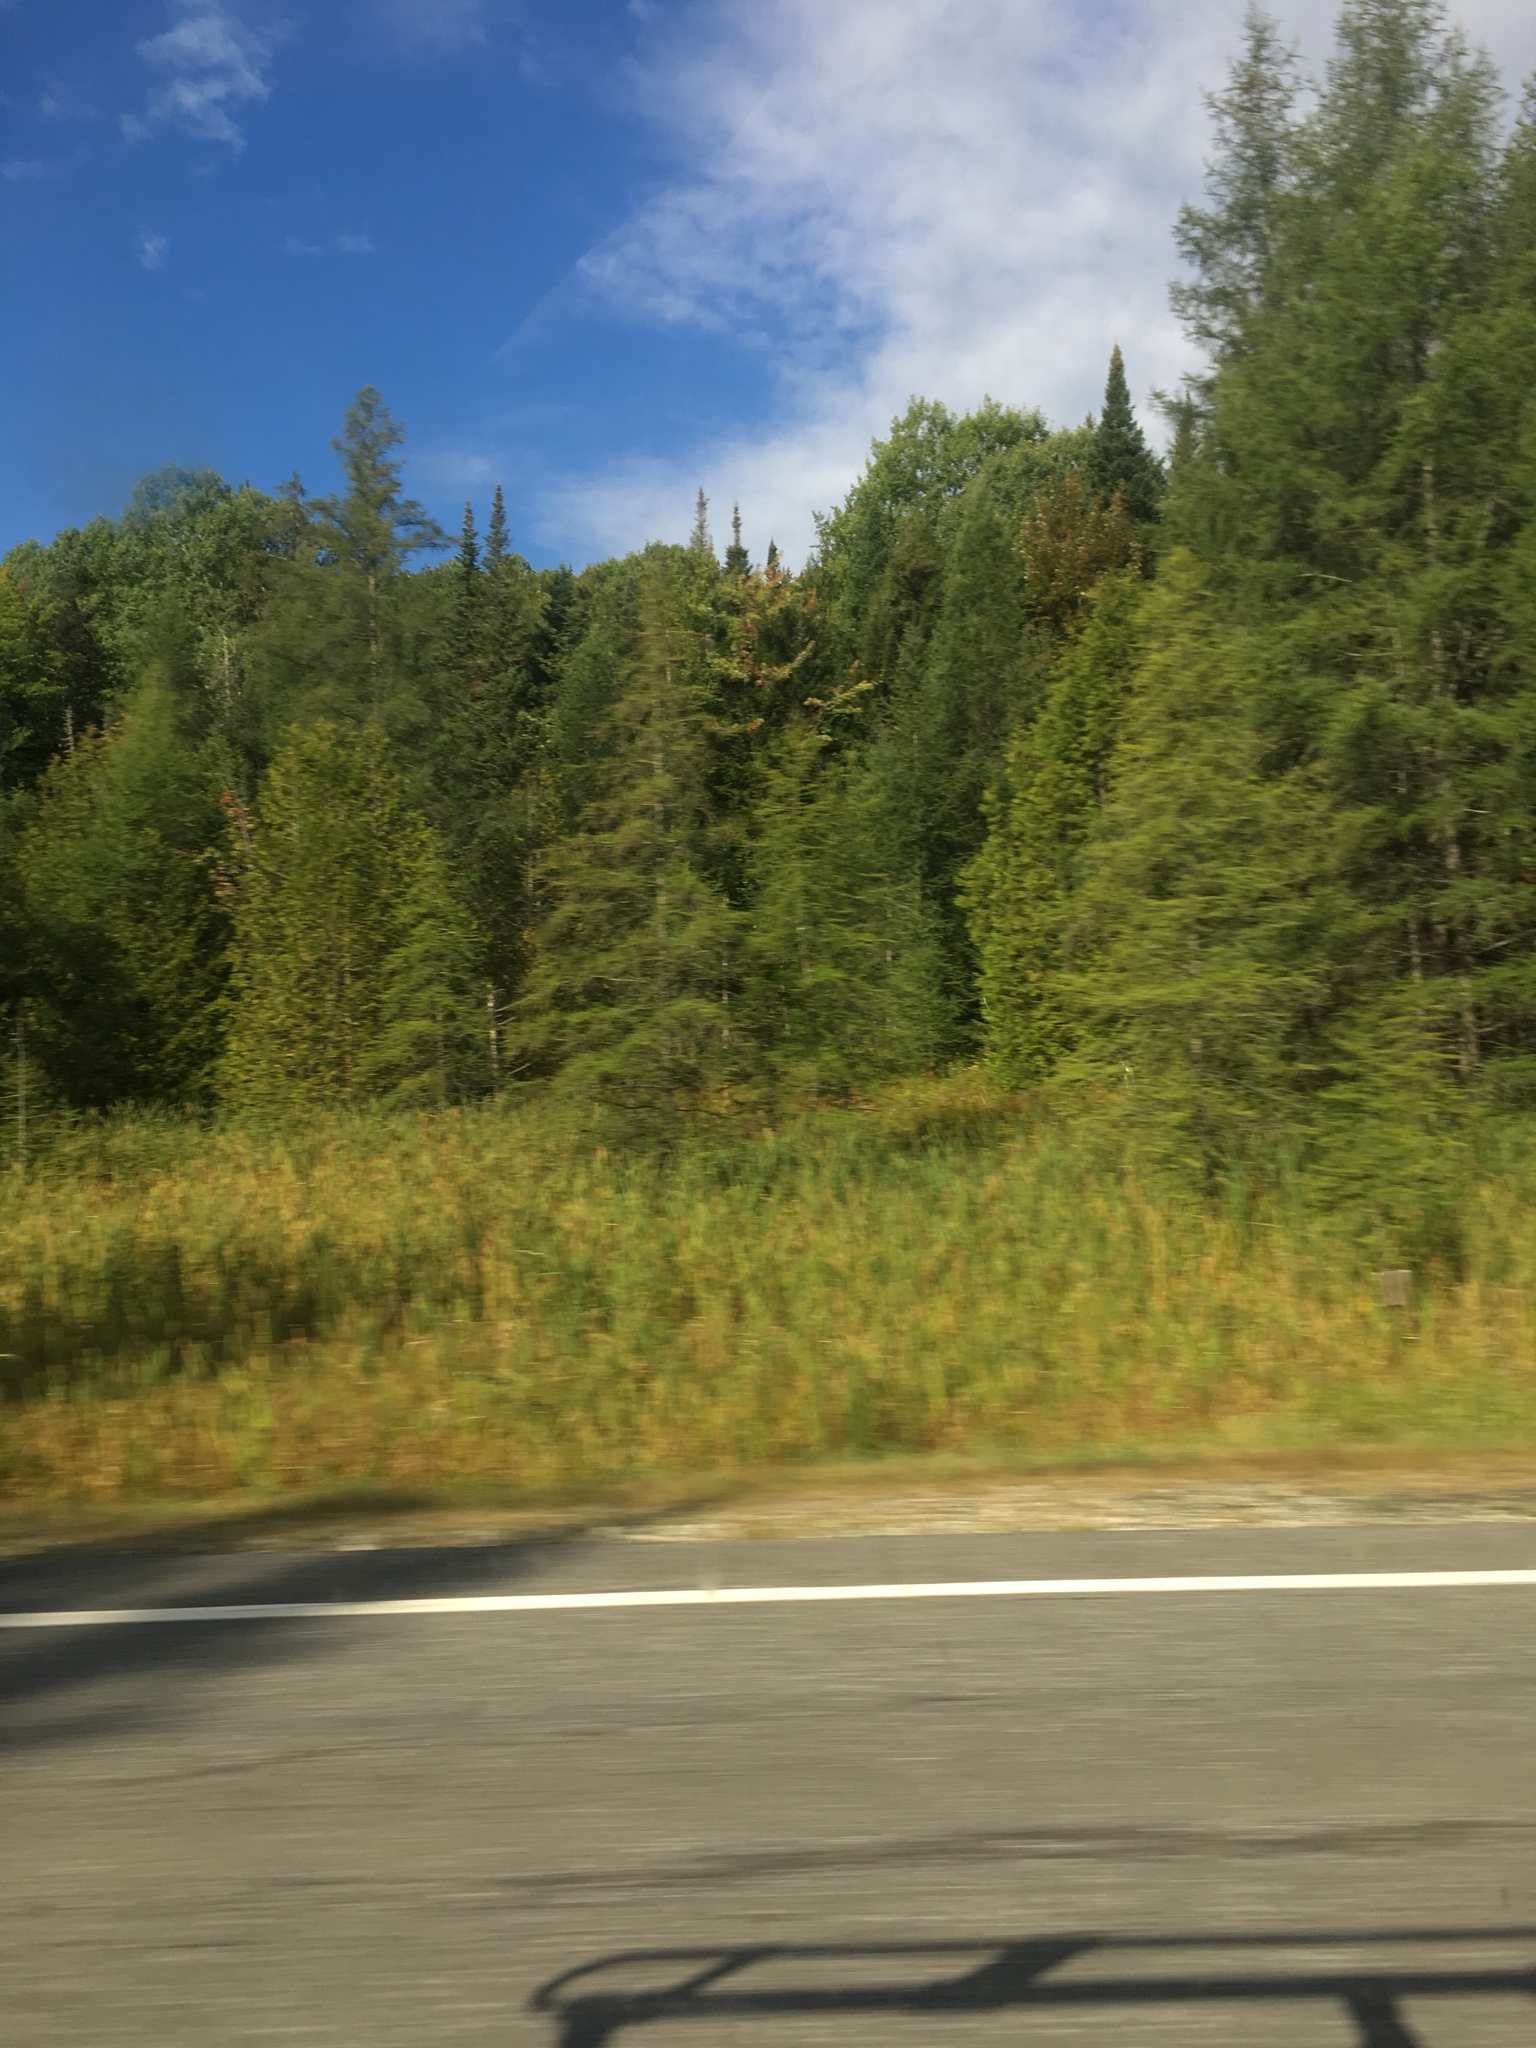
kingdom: Plantae
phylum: Tracheophyta
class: Pinopsida
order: Pinales
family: Pinaceae
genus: Larix
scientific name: Larix laricina
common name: American larch
